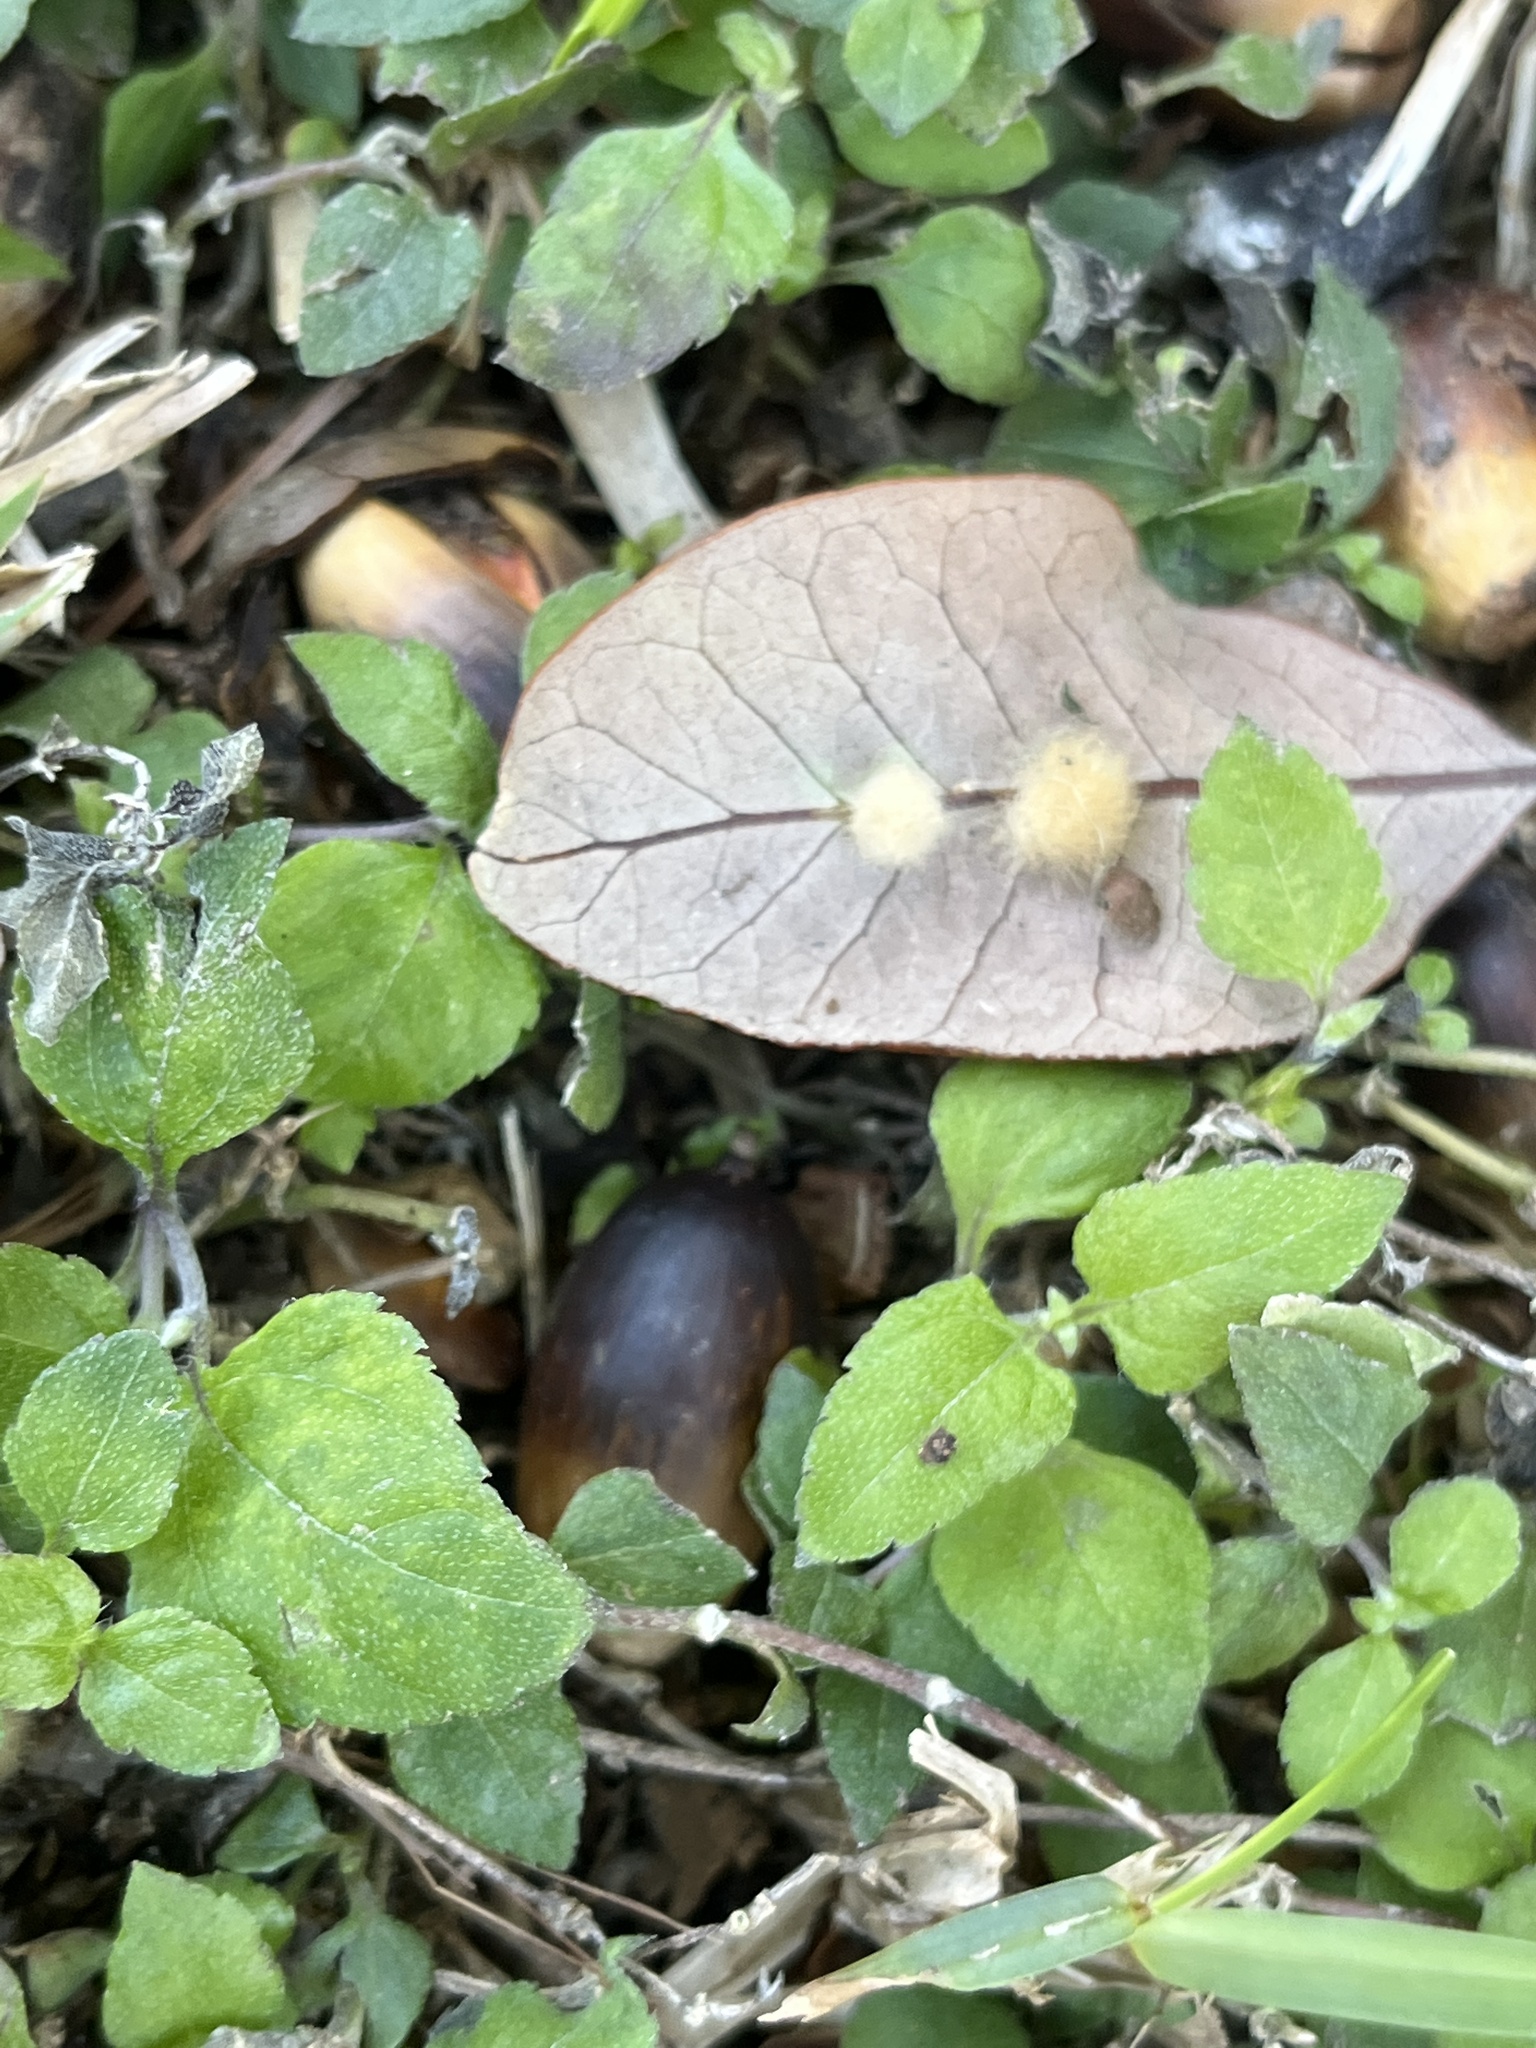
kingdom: Animalia
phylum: Arthropoda
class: Insecta
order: Hymenoptera
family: Cynipidae
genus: Andricus
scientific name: Andricus Druon quercuslanigerum
